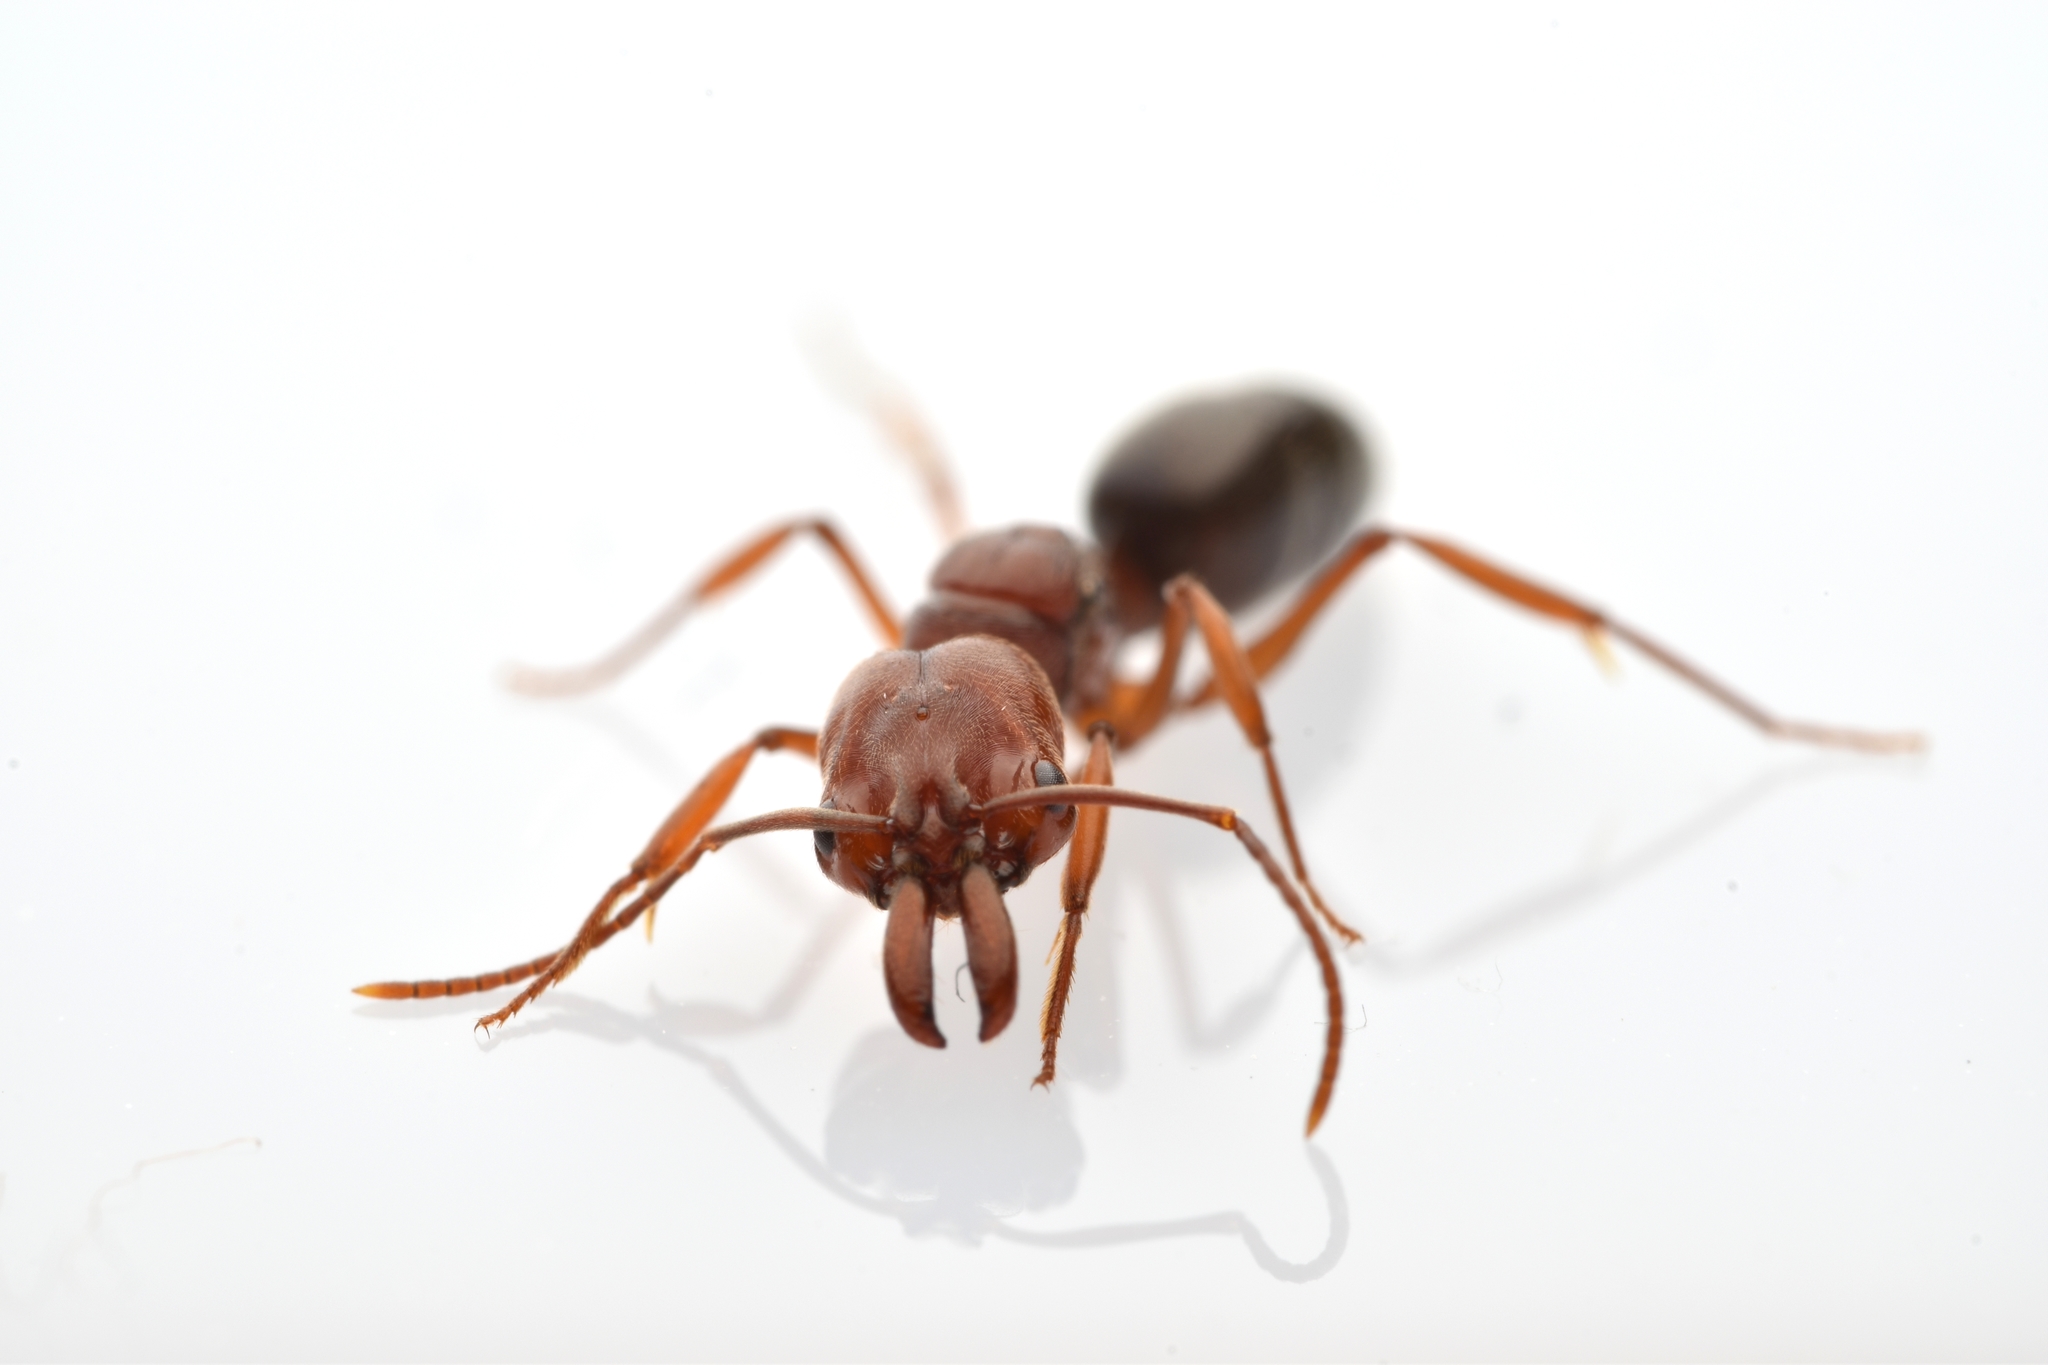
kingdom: Animalia
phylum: Arthropoda
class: Insecta
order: Hymenoptera
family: Formicidae
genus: Odontomachus
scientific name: Odontomachus clarus
